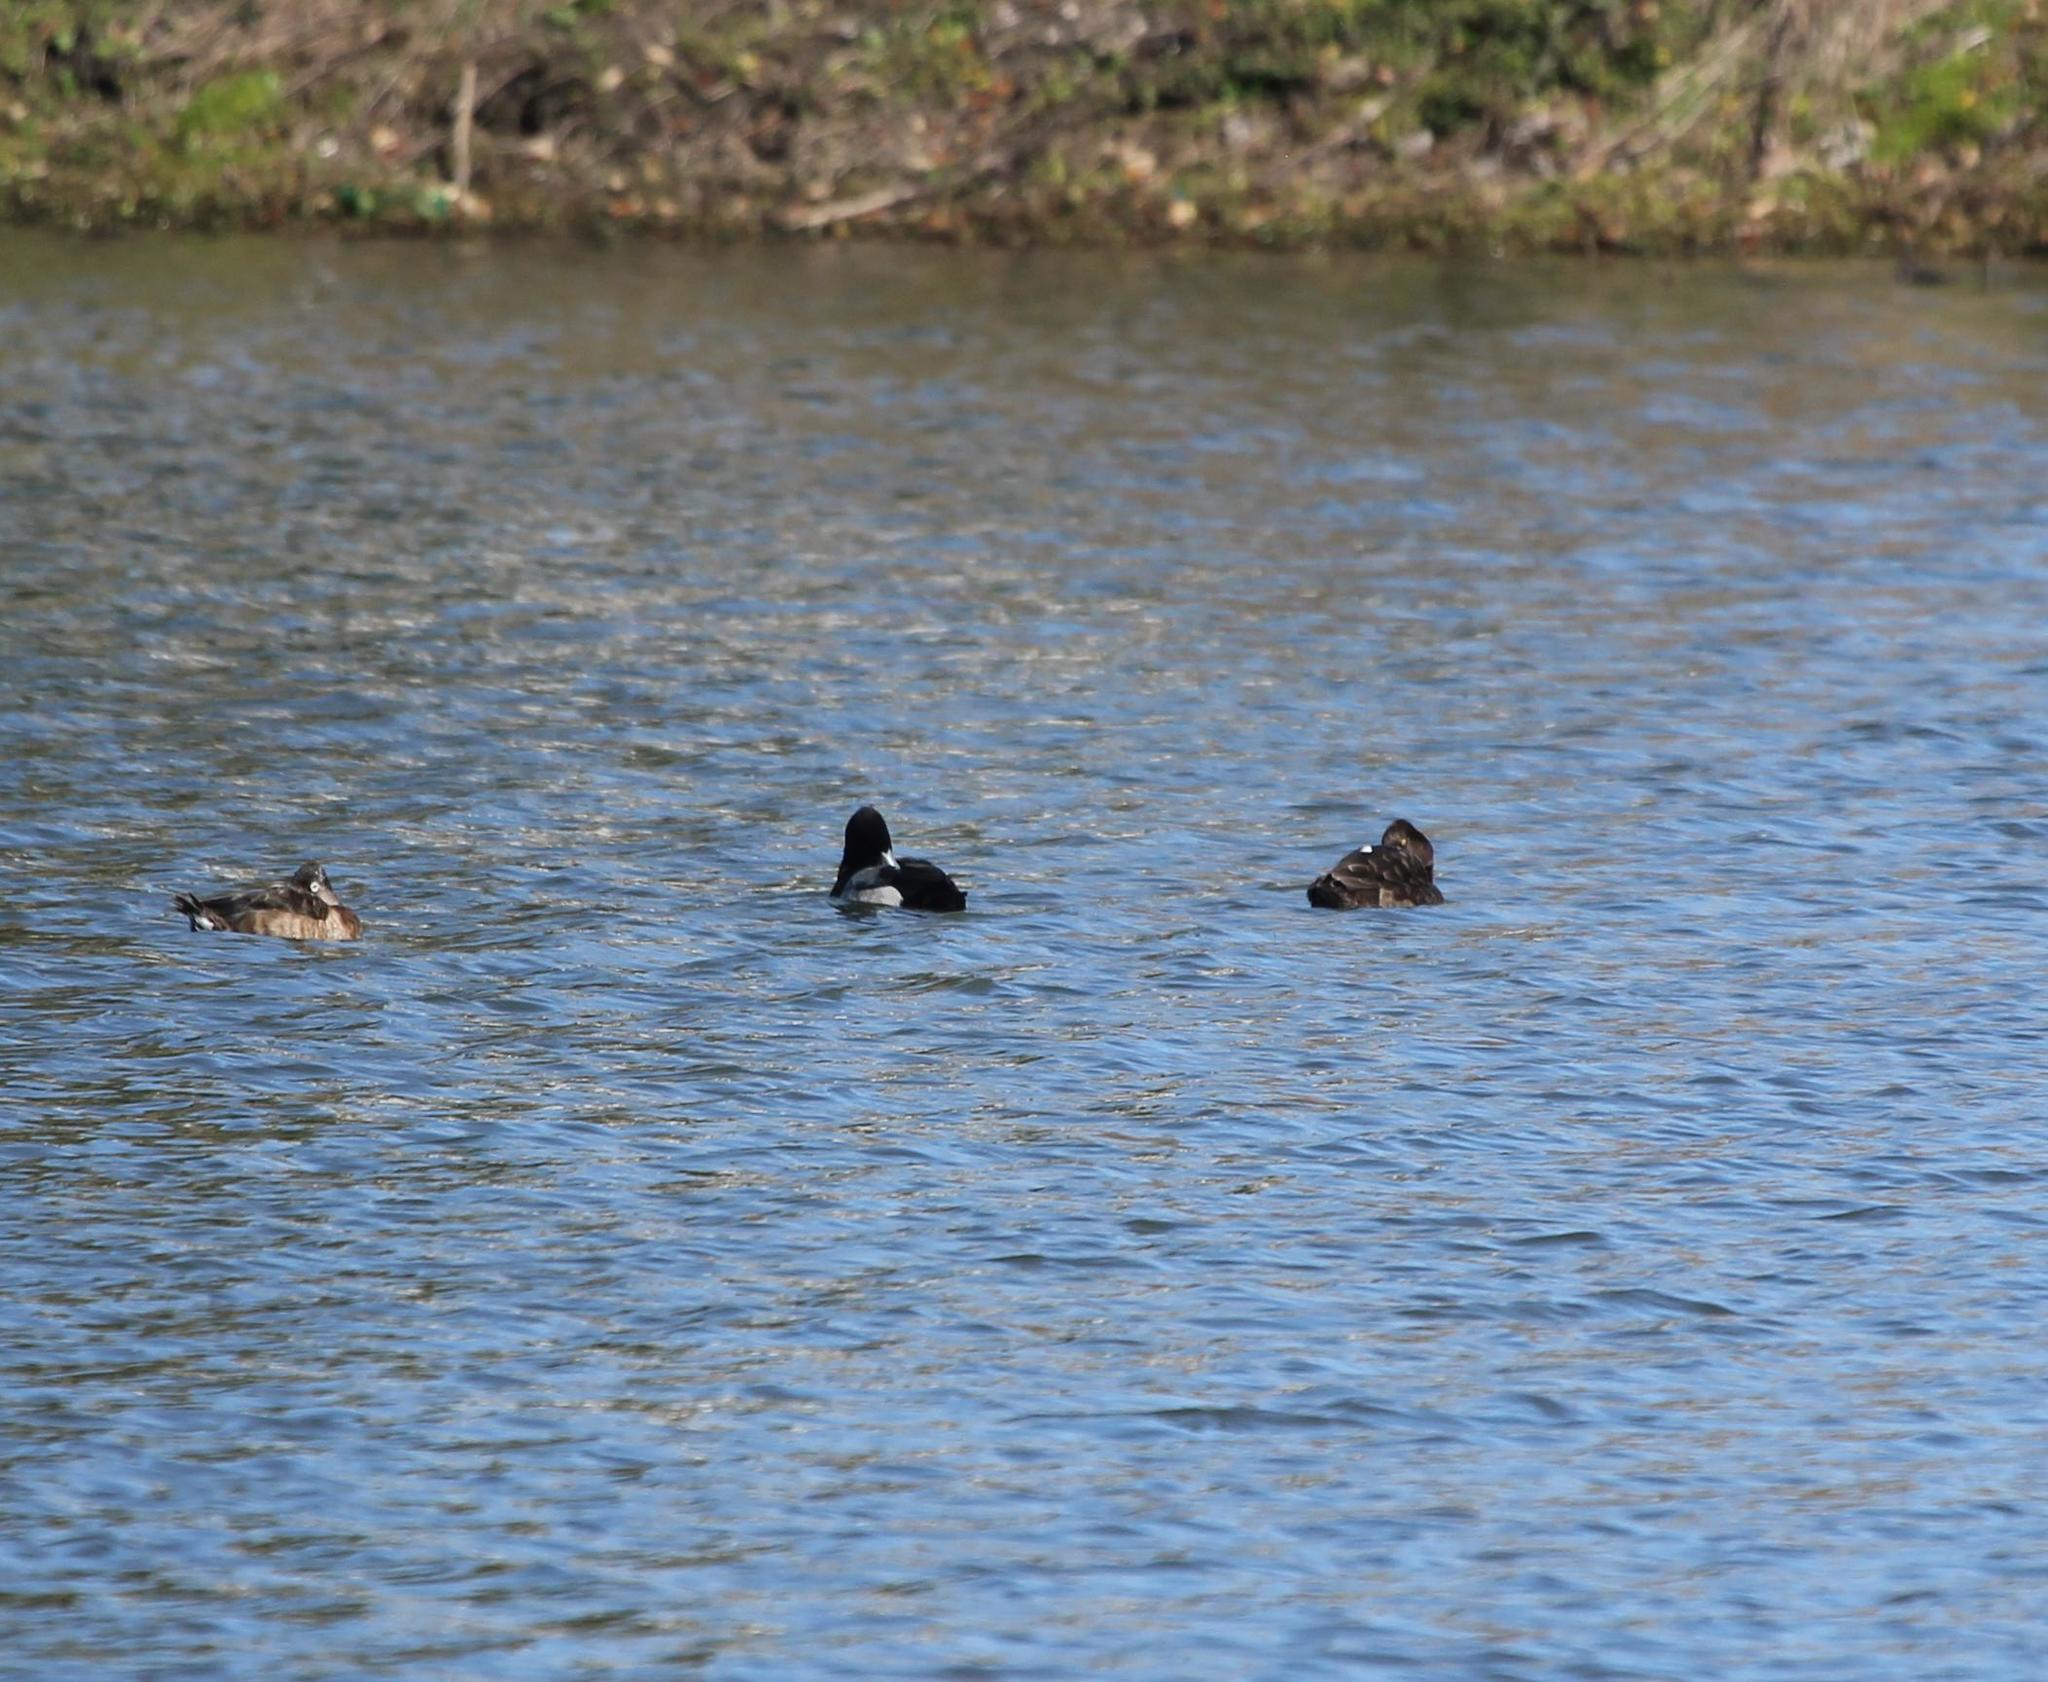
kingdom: Animalia
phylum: Chordata
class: Aves
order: Anseriformes
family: Anatidae
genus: Aythya
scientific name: Aythya affinis
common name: Lesser scaup
